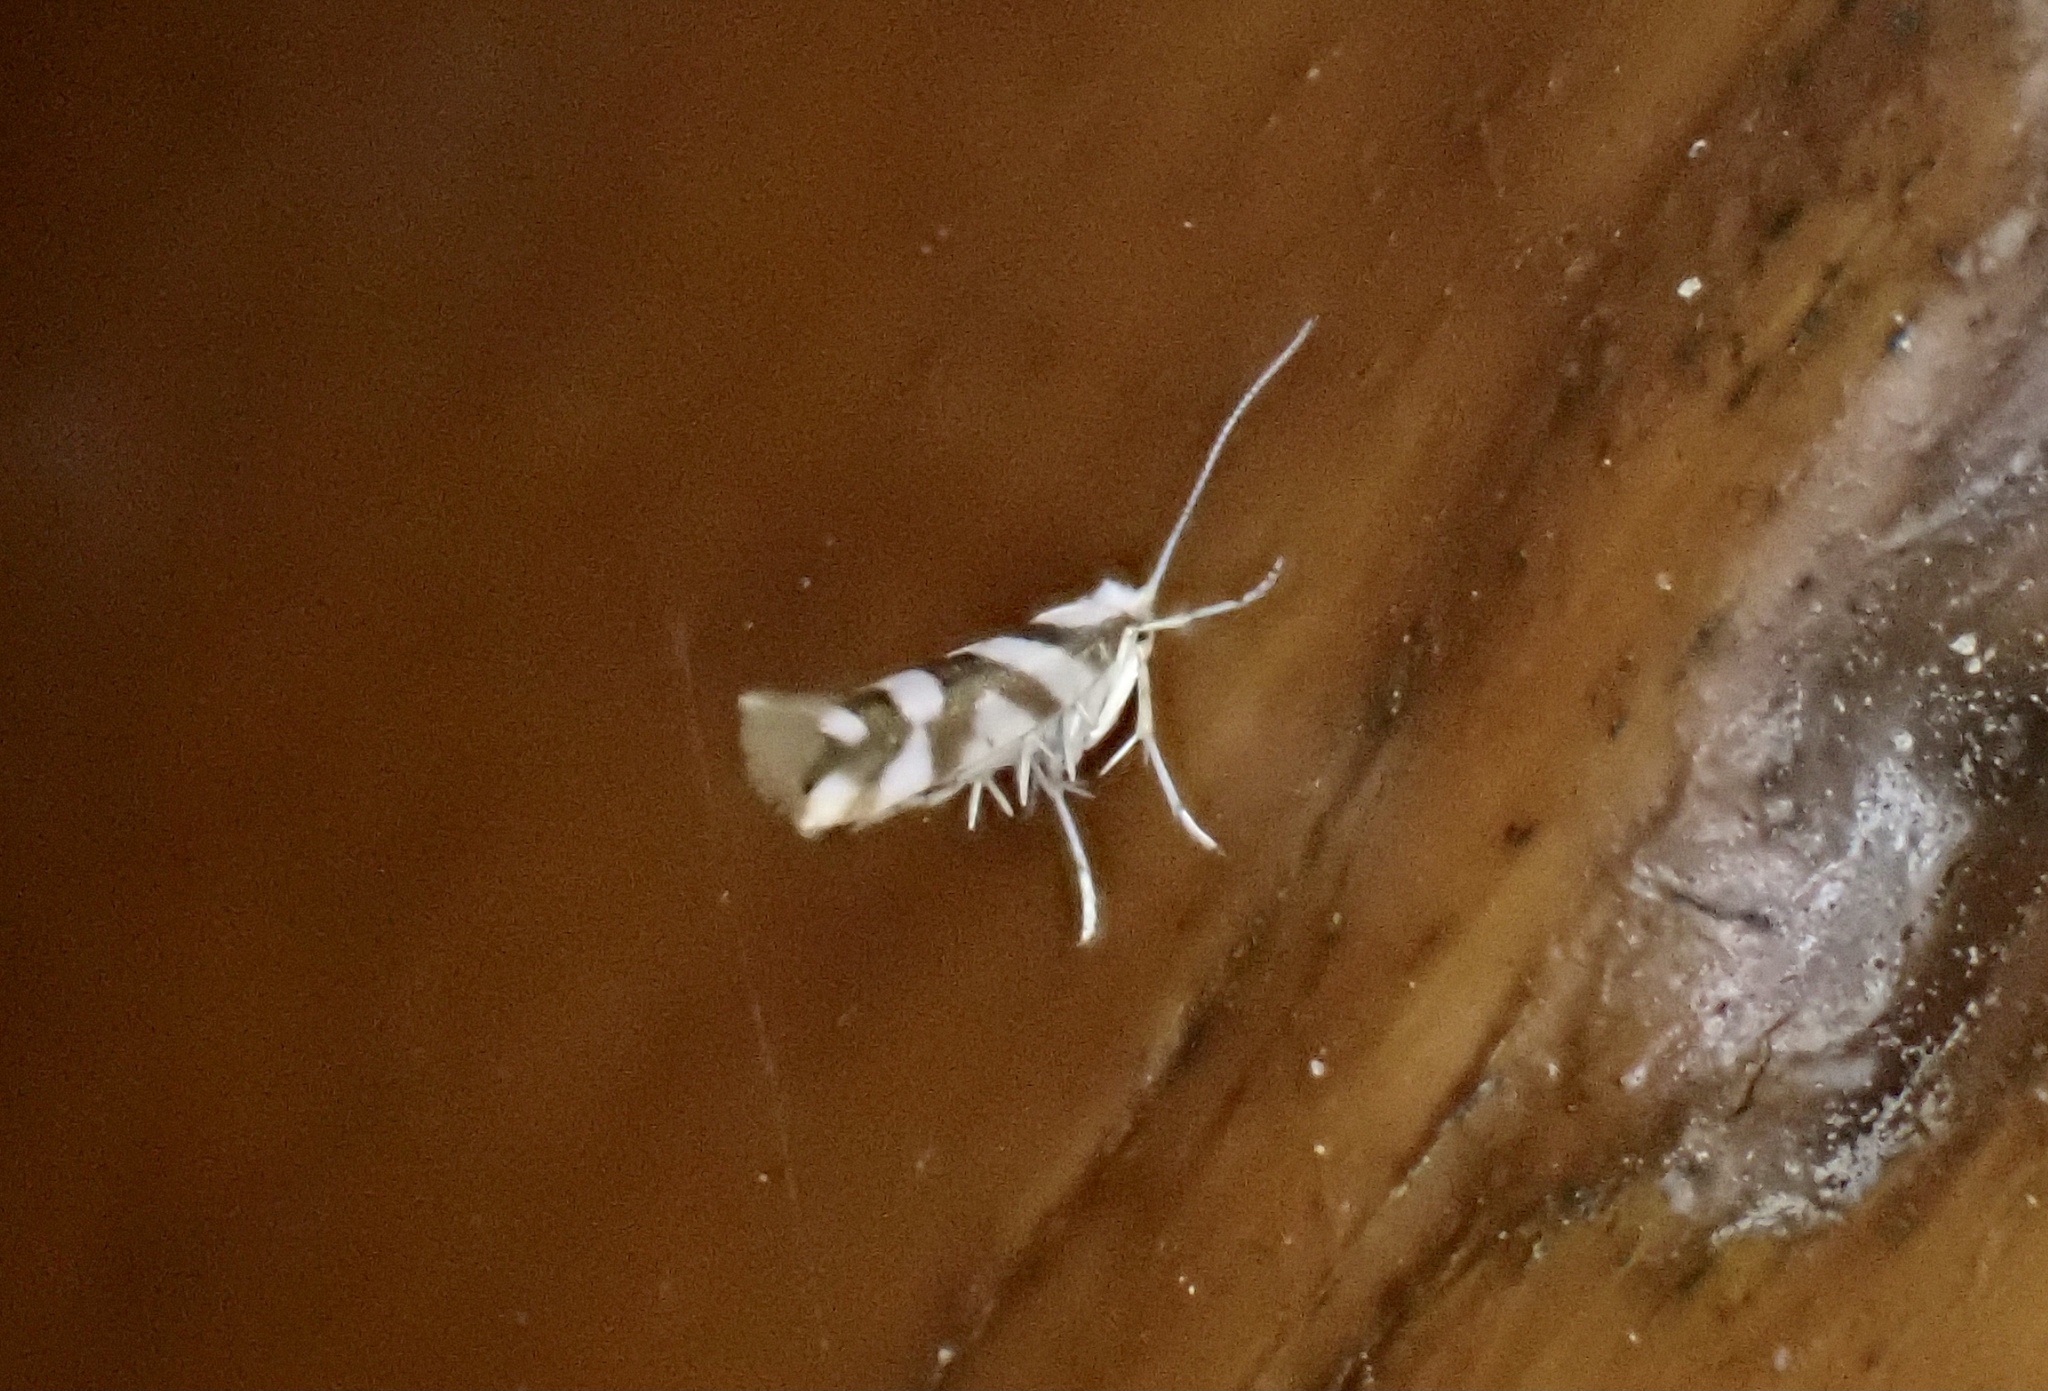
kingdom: Animalia
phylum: Arthropoda
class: Insecta
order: Lepidoptera
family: Argyresthiidae
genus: Argyresthia
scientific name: Argyresthia calliphanes
